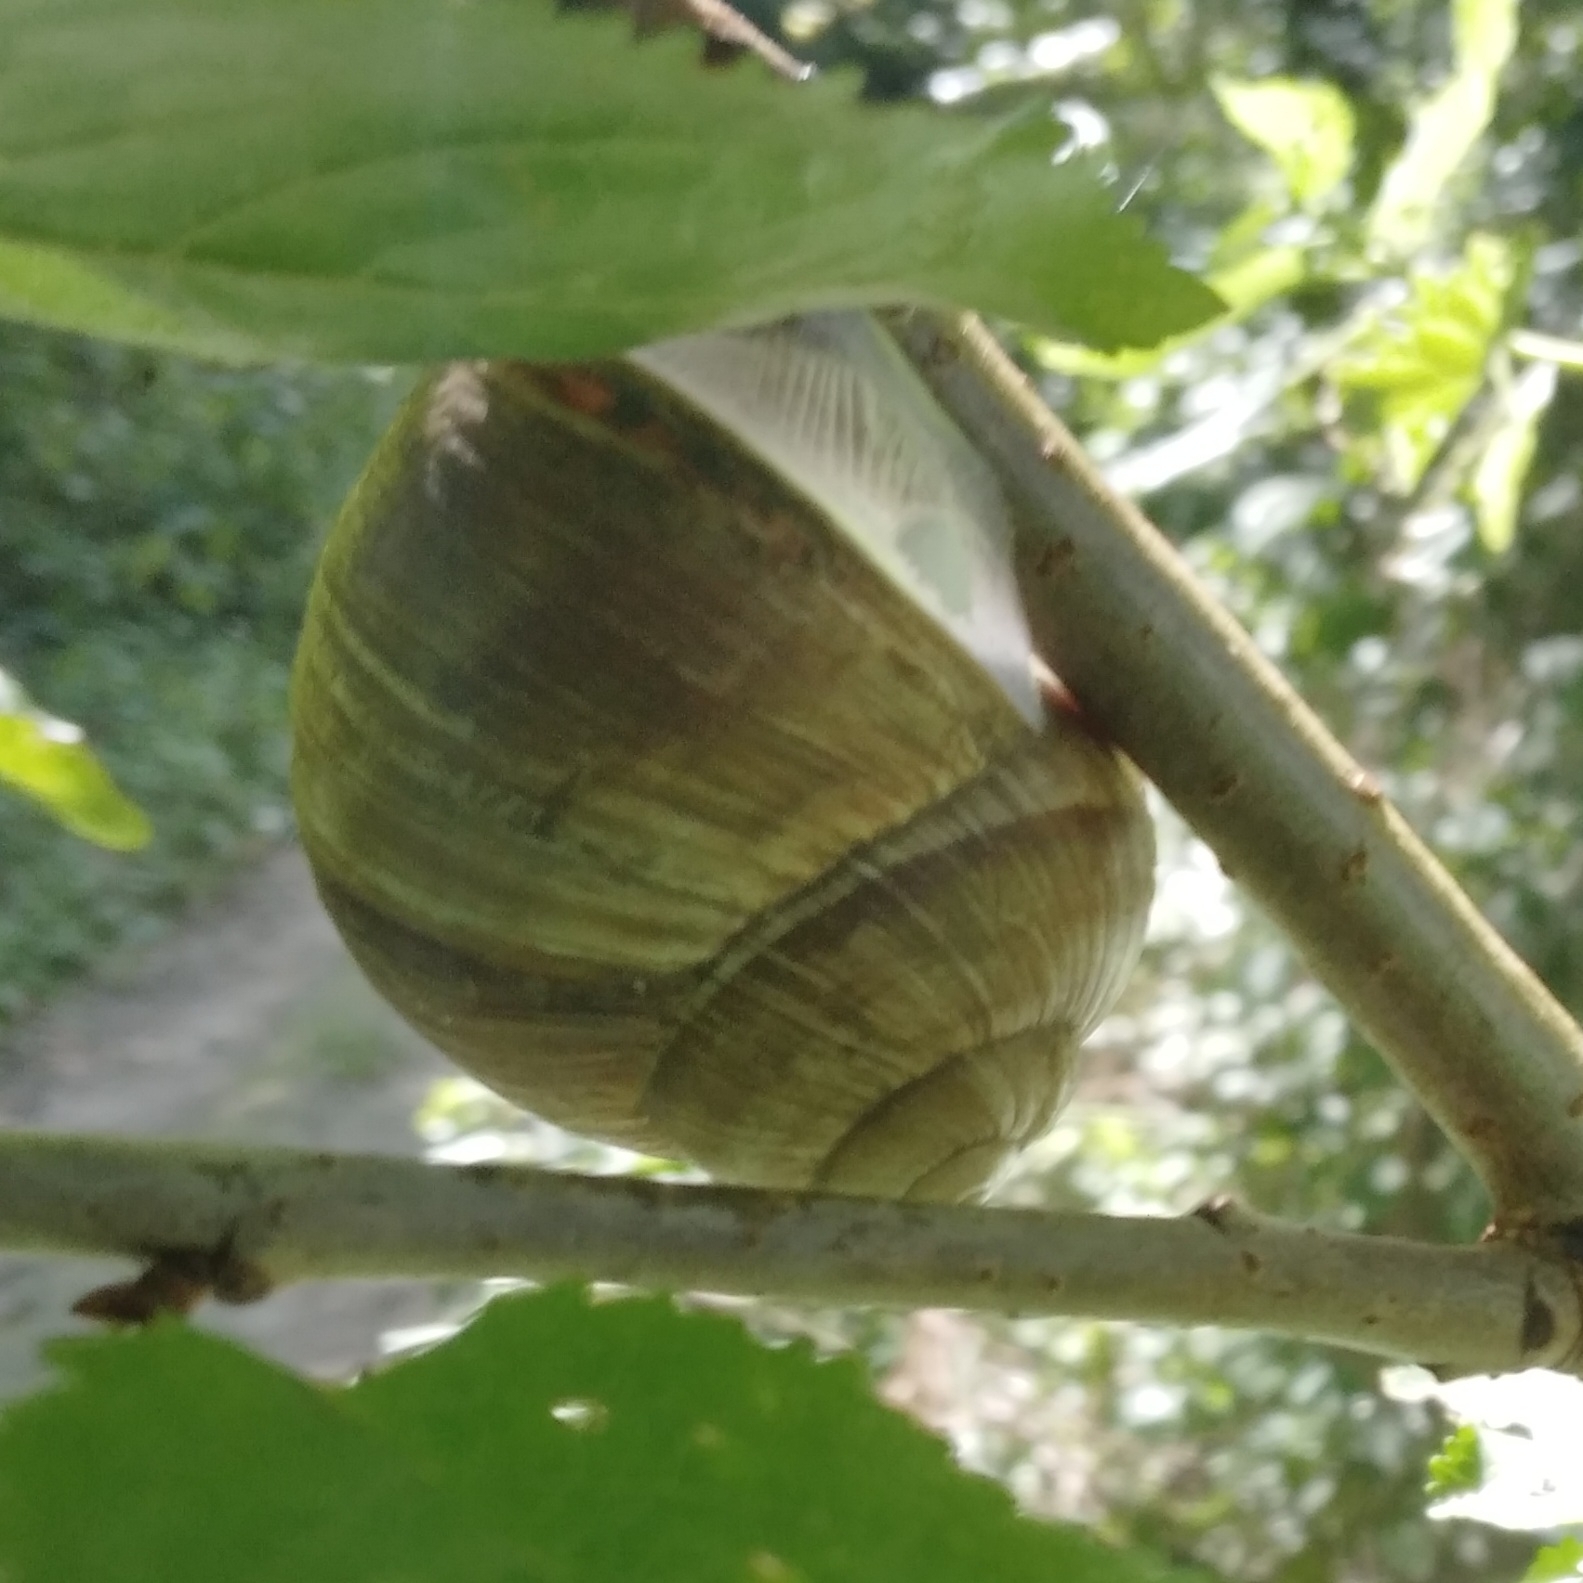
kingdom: Animalia
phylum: Mollusca
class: Gastropoda
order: Stylommatophora
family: Helicidae
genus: Helix
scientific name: Helix pomatia
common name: Roman snail
